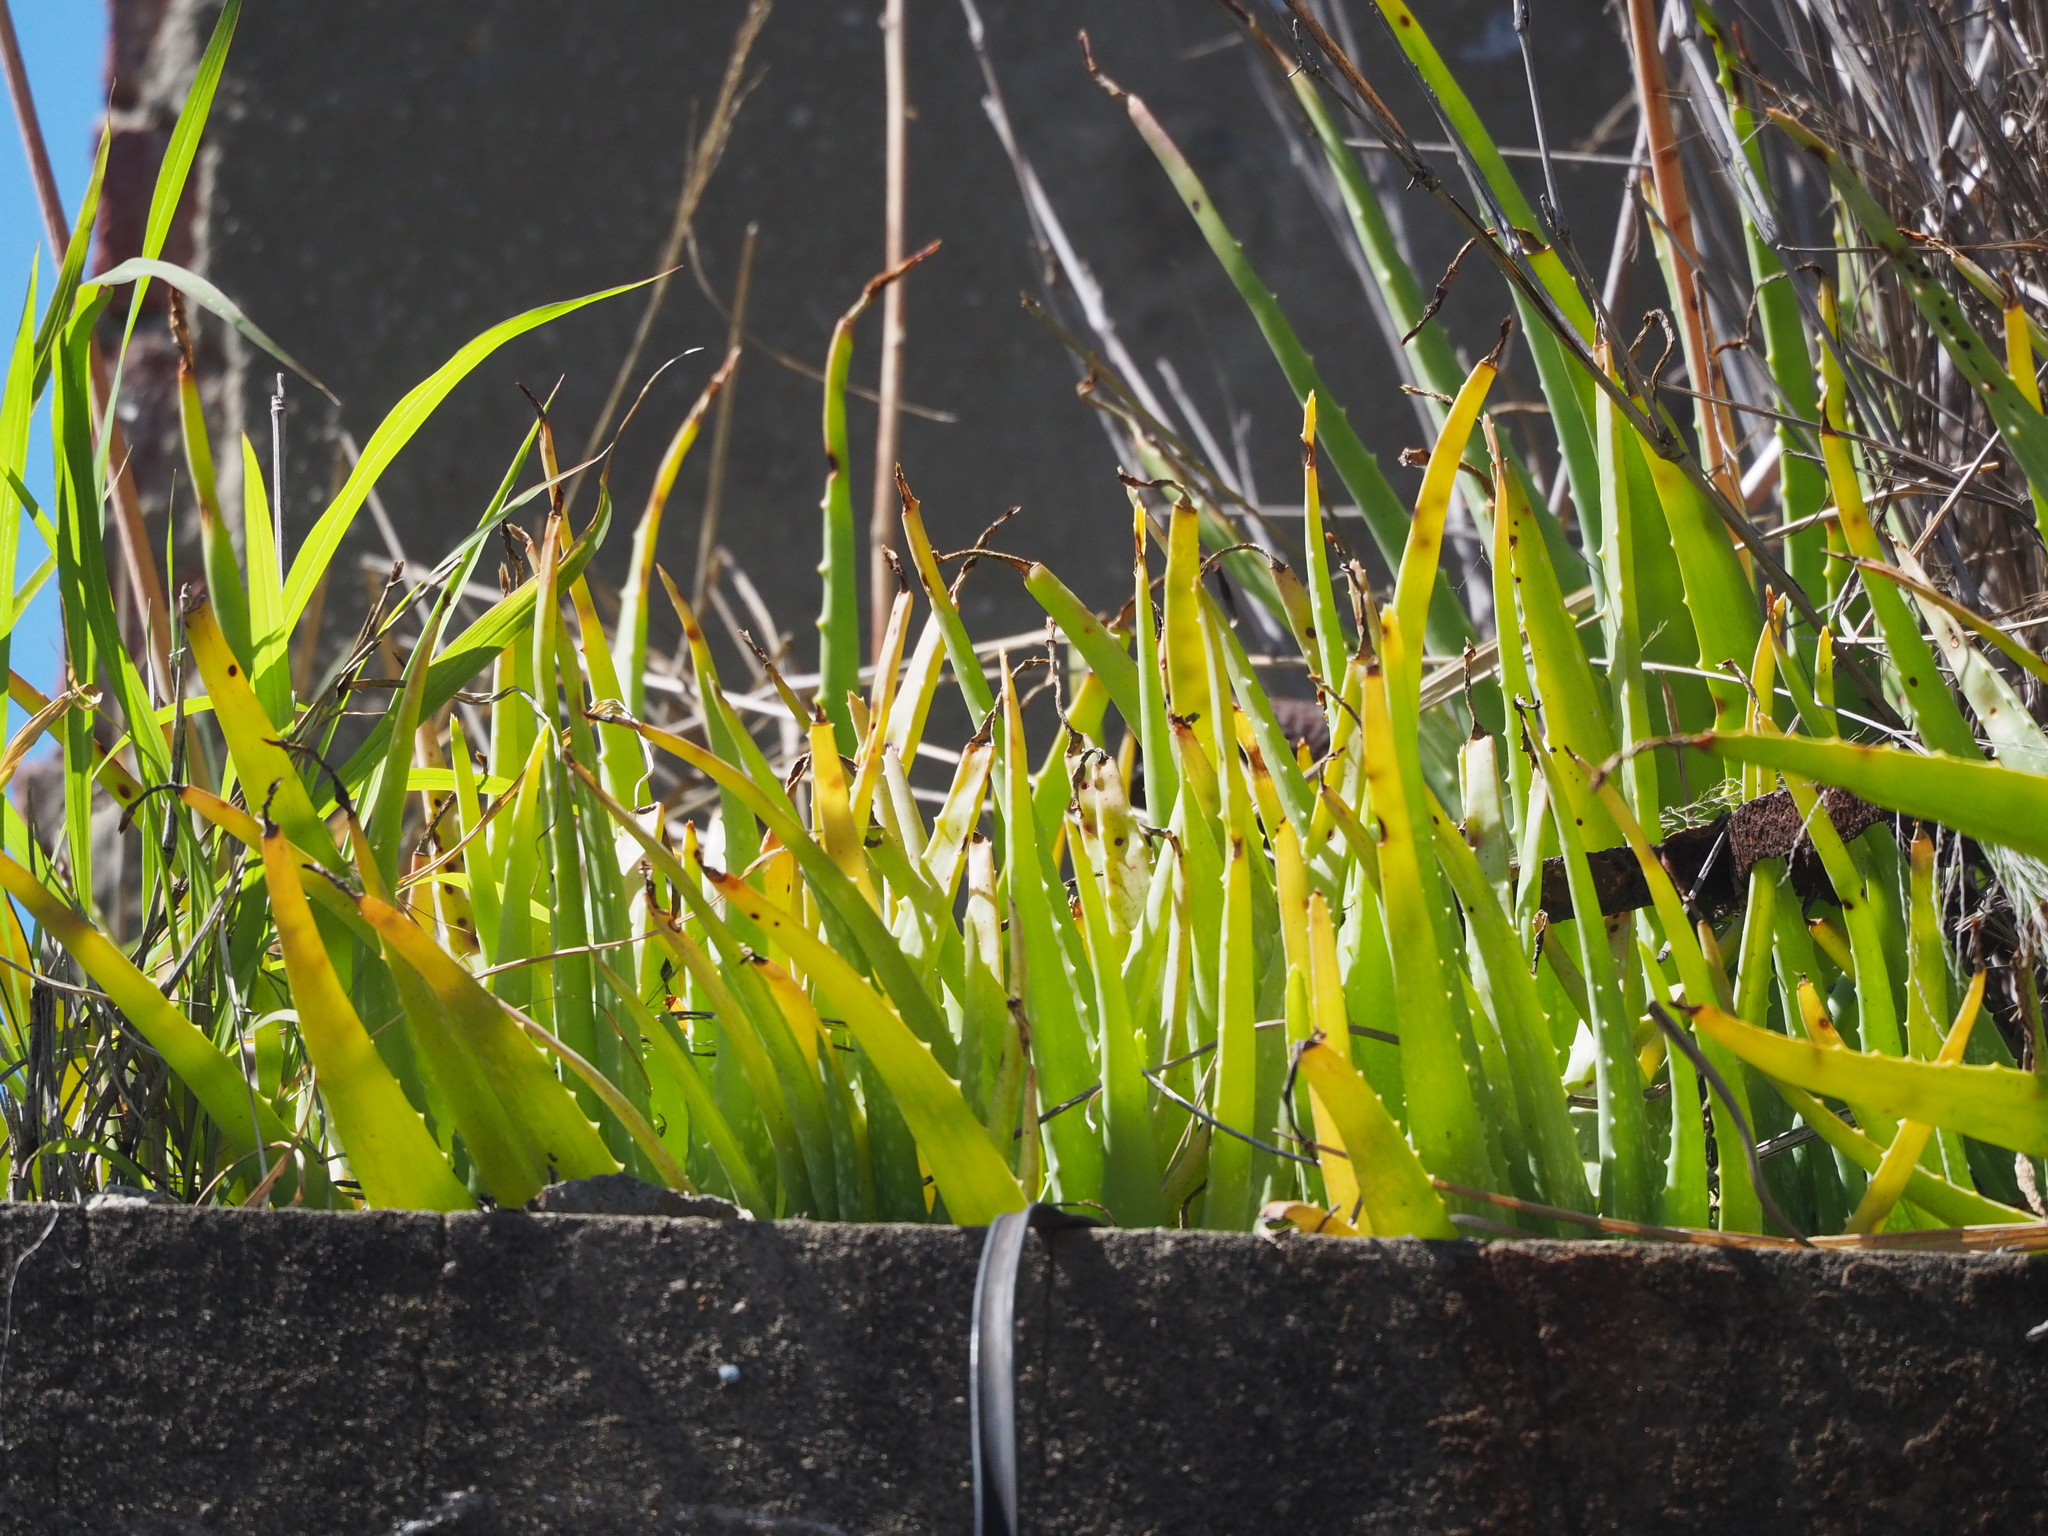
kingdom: Plantae
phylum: Tracheophyta
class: Liliopsida
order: Asparagales
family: Asphodelaceae
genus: Aloe
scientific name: Aloe vera
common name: Barbados aloe
